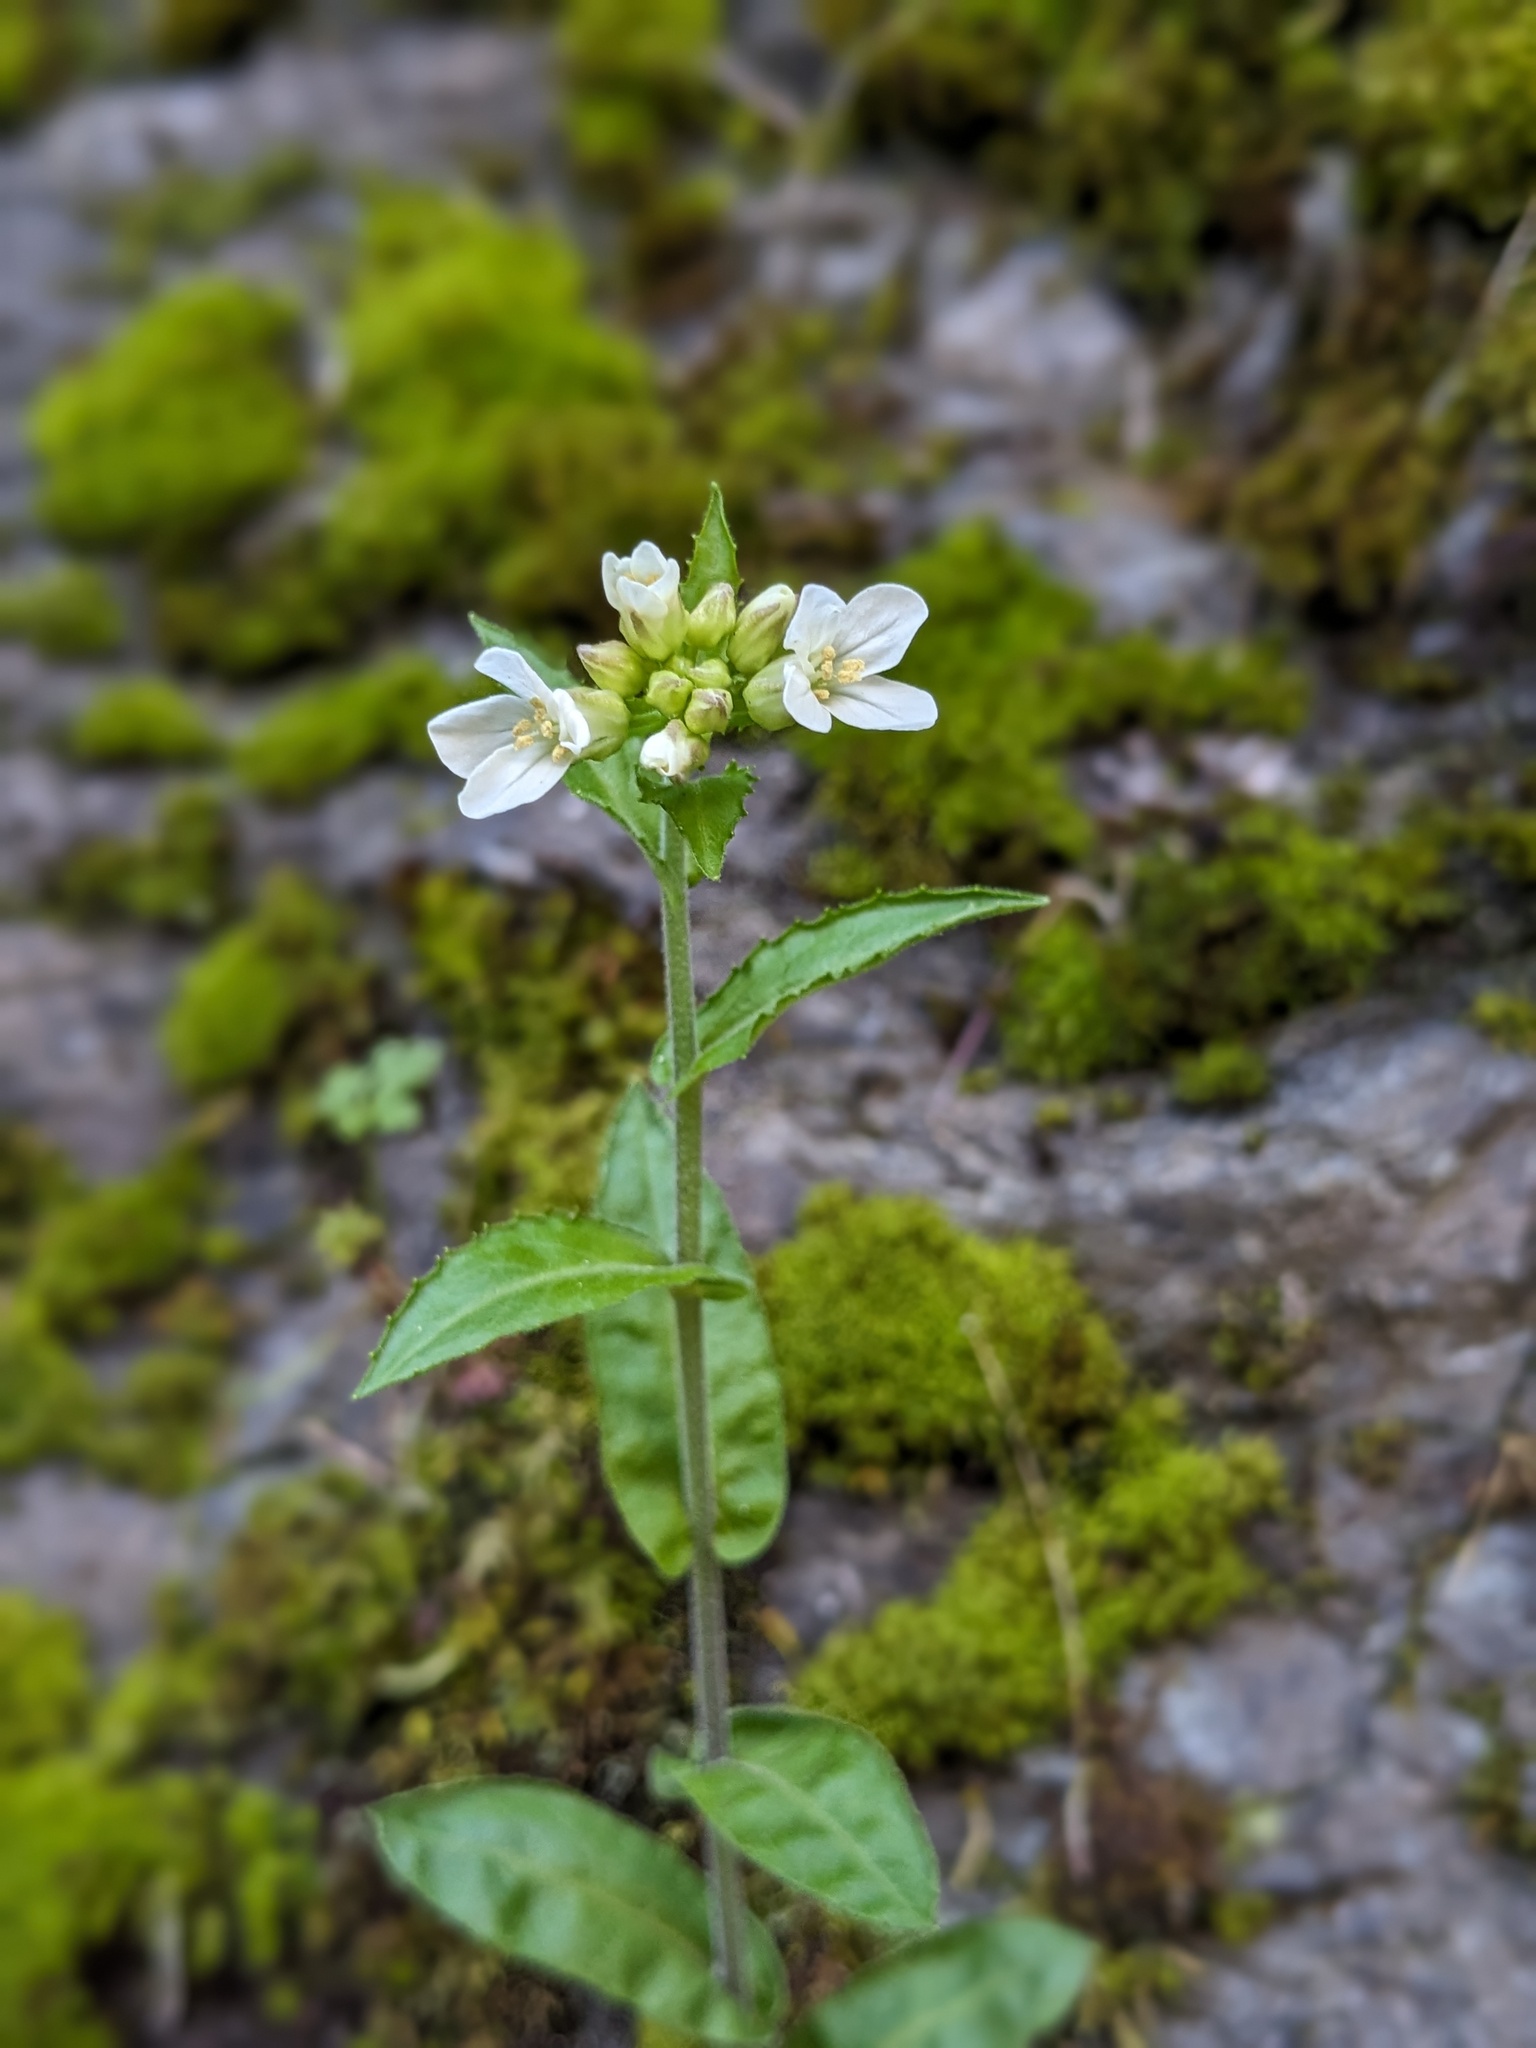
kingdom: Plantae
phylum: Tracheophyta
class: Magnoliopsida
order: Brassicales
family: Brassicaceae
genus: Pseudoturritis
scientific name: Pseudoturritis turrita
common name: Tower cress
